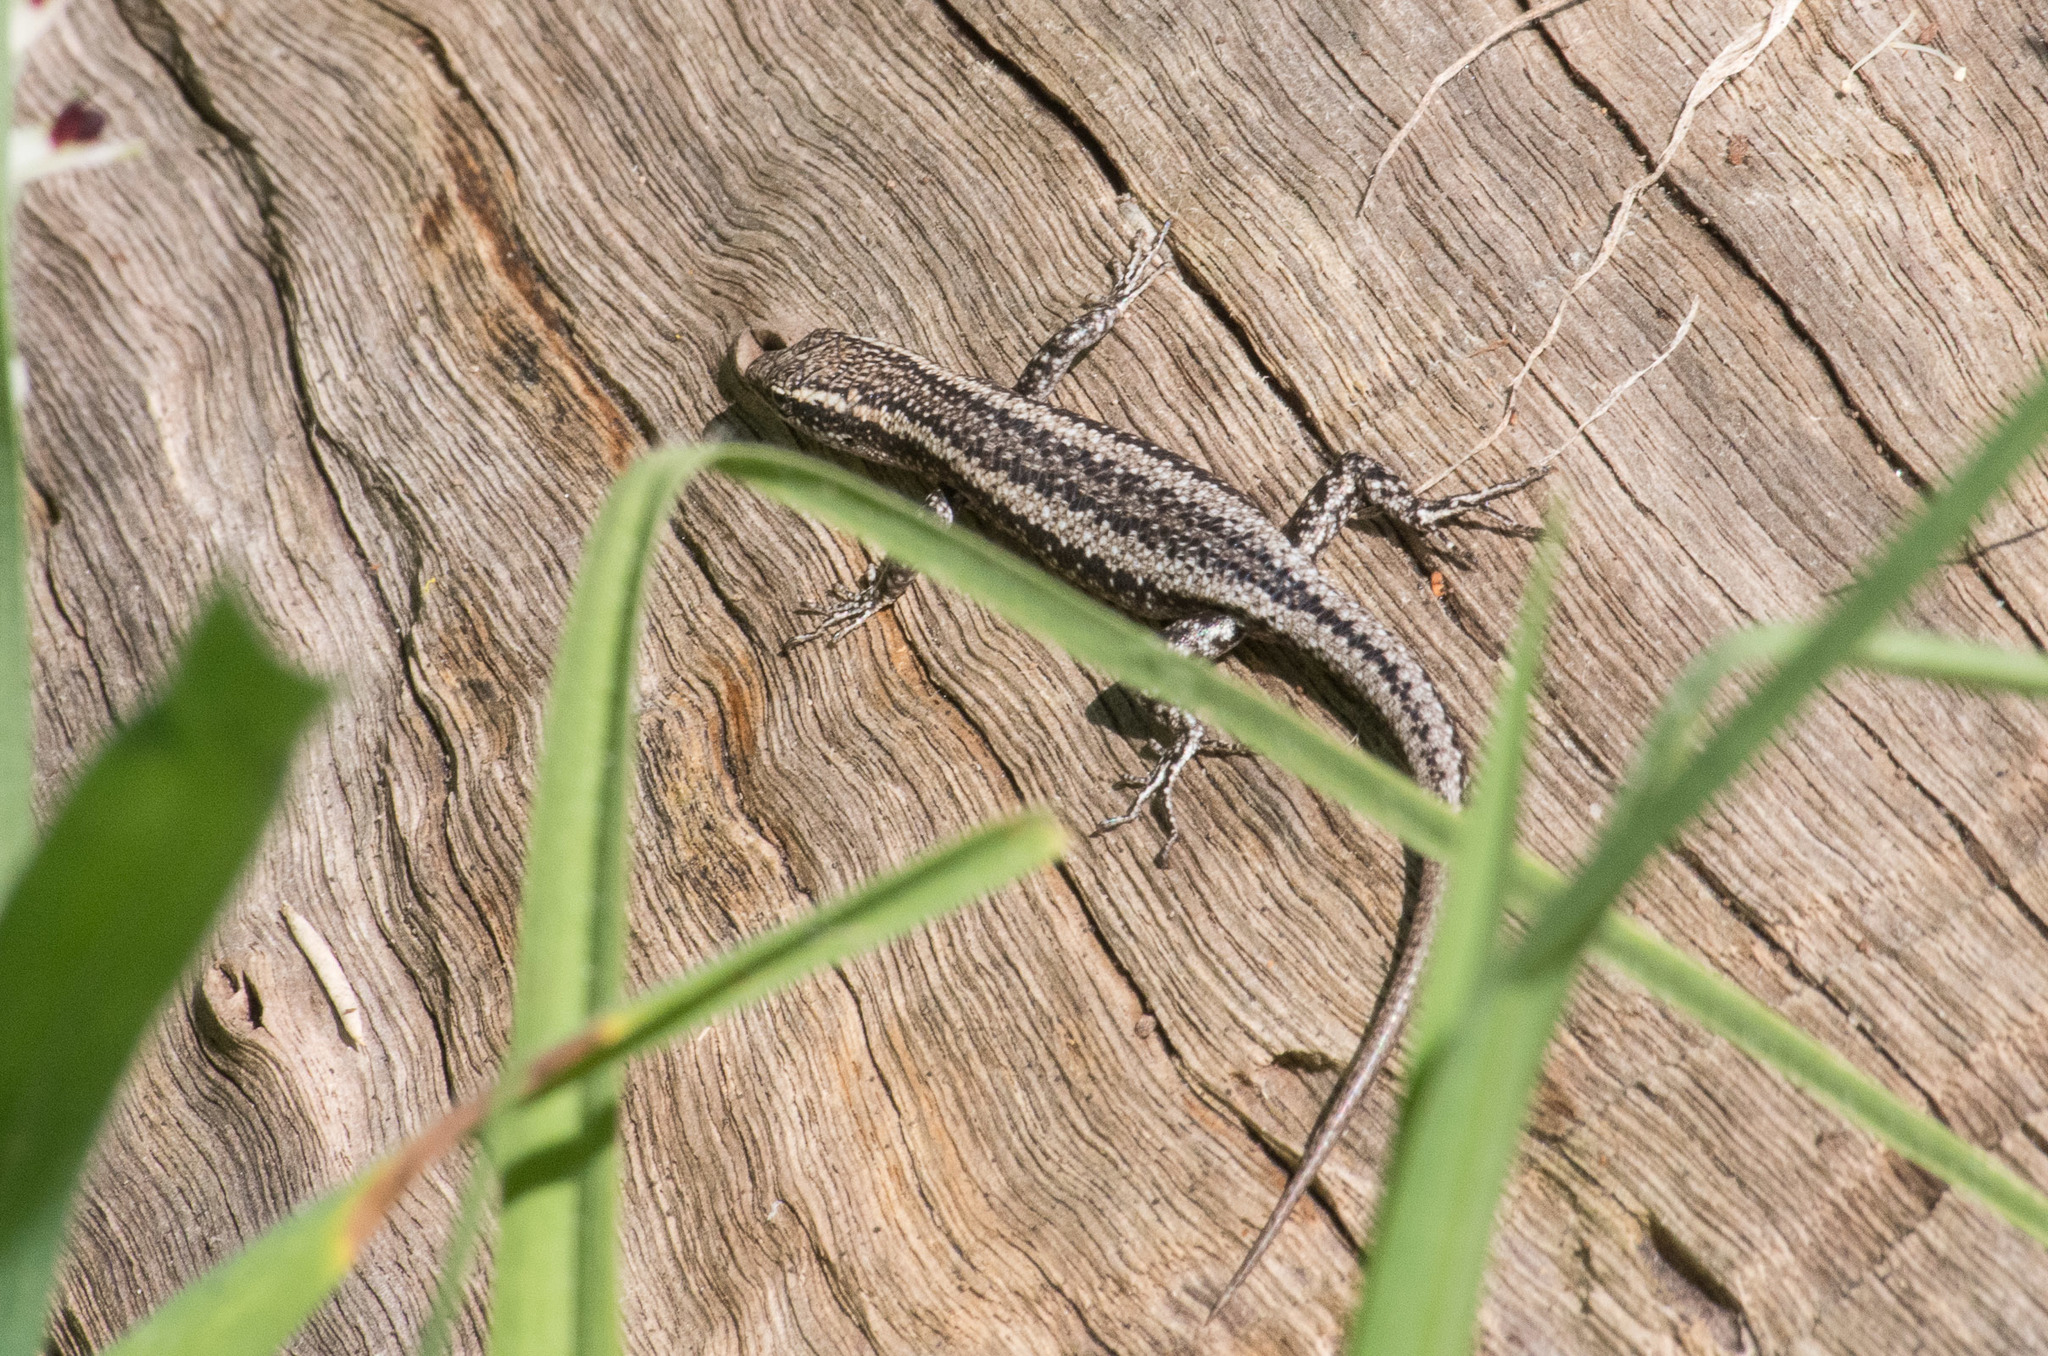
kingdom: Animalia
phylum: Chordata
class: Squamata
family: Scincidae
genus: Cryptoblepharus
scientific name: Cryptoblepharus buchananii
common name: Buchanan's snake-eyed skink
